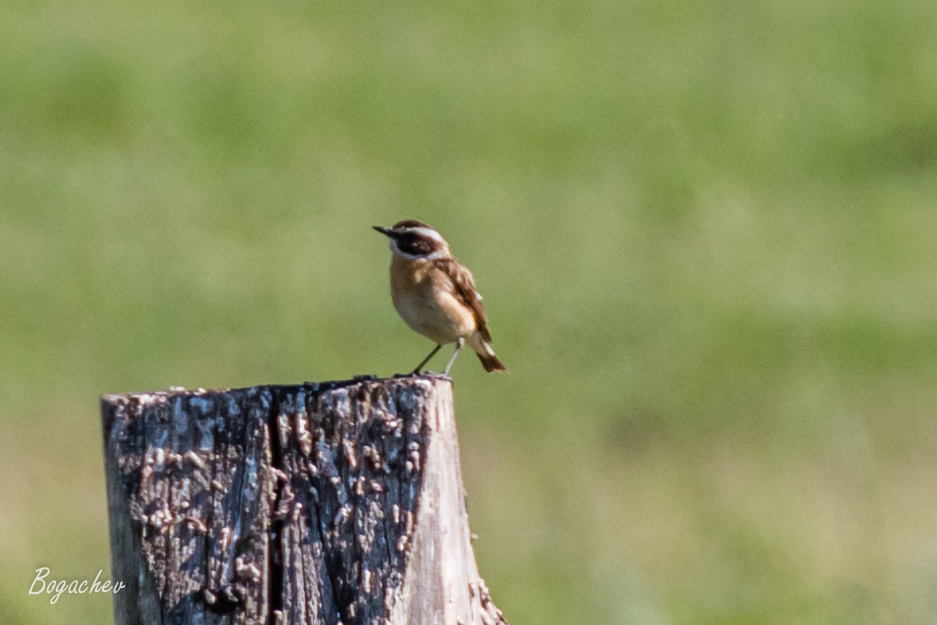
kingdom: Animalia
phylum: Chordata
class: Aves
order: Passeriformes
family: Muscicapidae
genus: Saxicola
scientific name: Saxicola rubetra
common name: Whinchat
